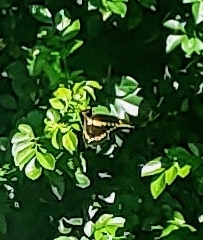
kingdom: Animalia
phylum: Arthropoda
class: Insecta
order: Lepidoptera
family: Papilionidae
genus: Papilio
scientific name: Papilio cresphontes
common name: Giant swallowtail
